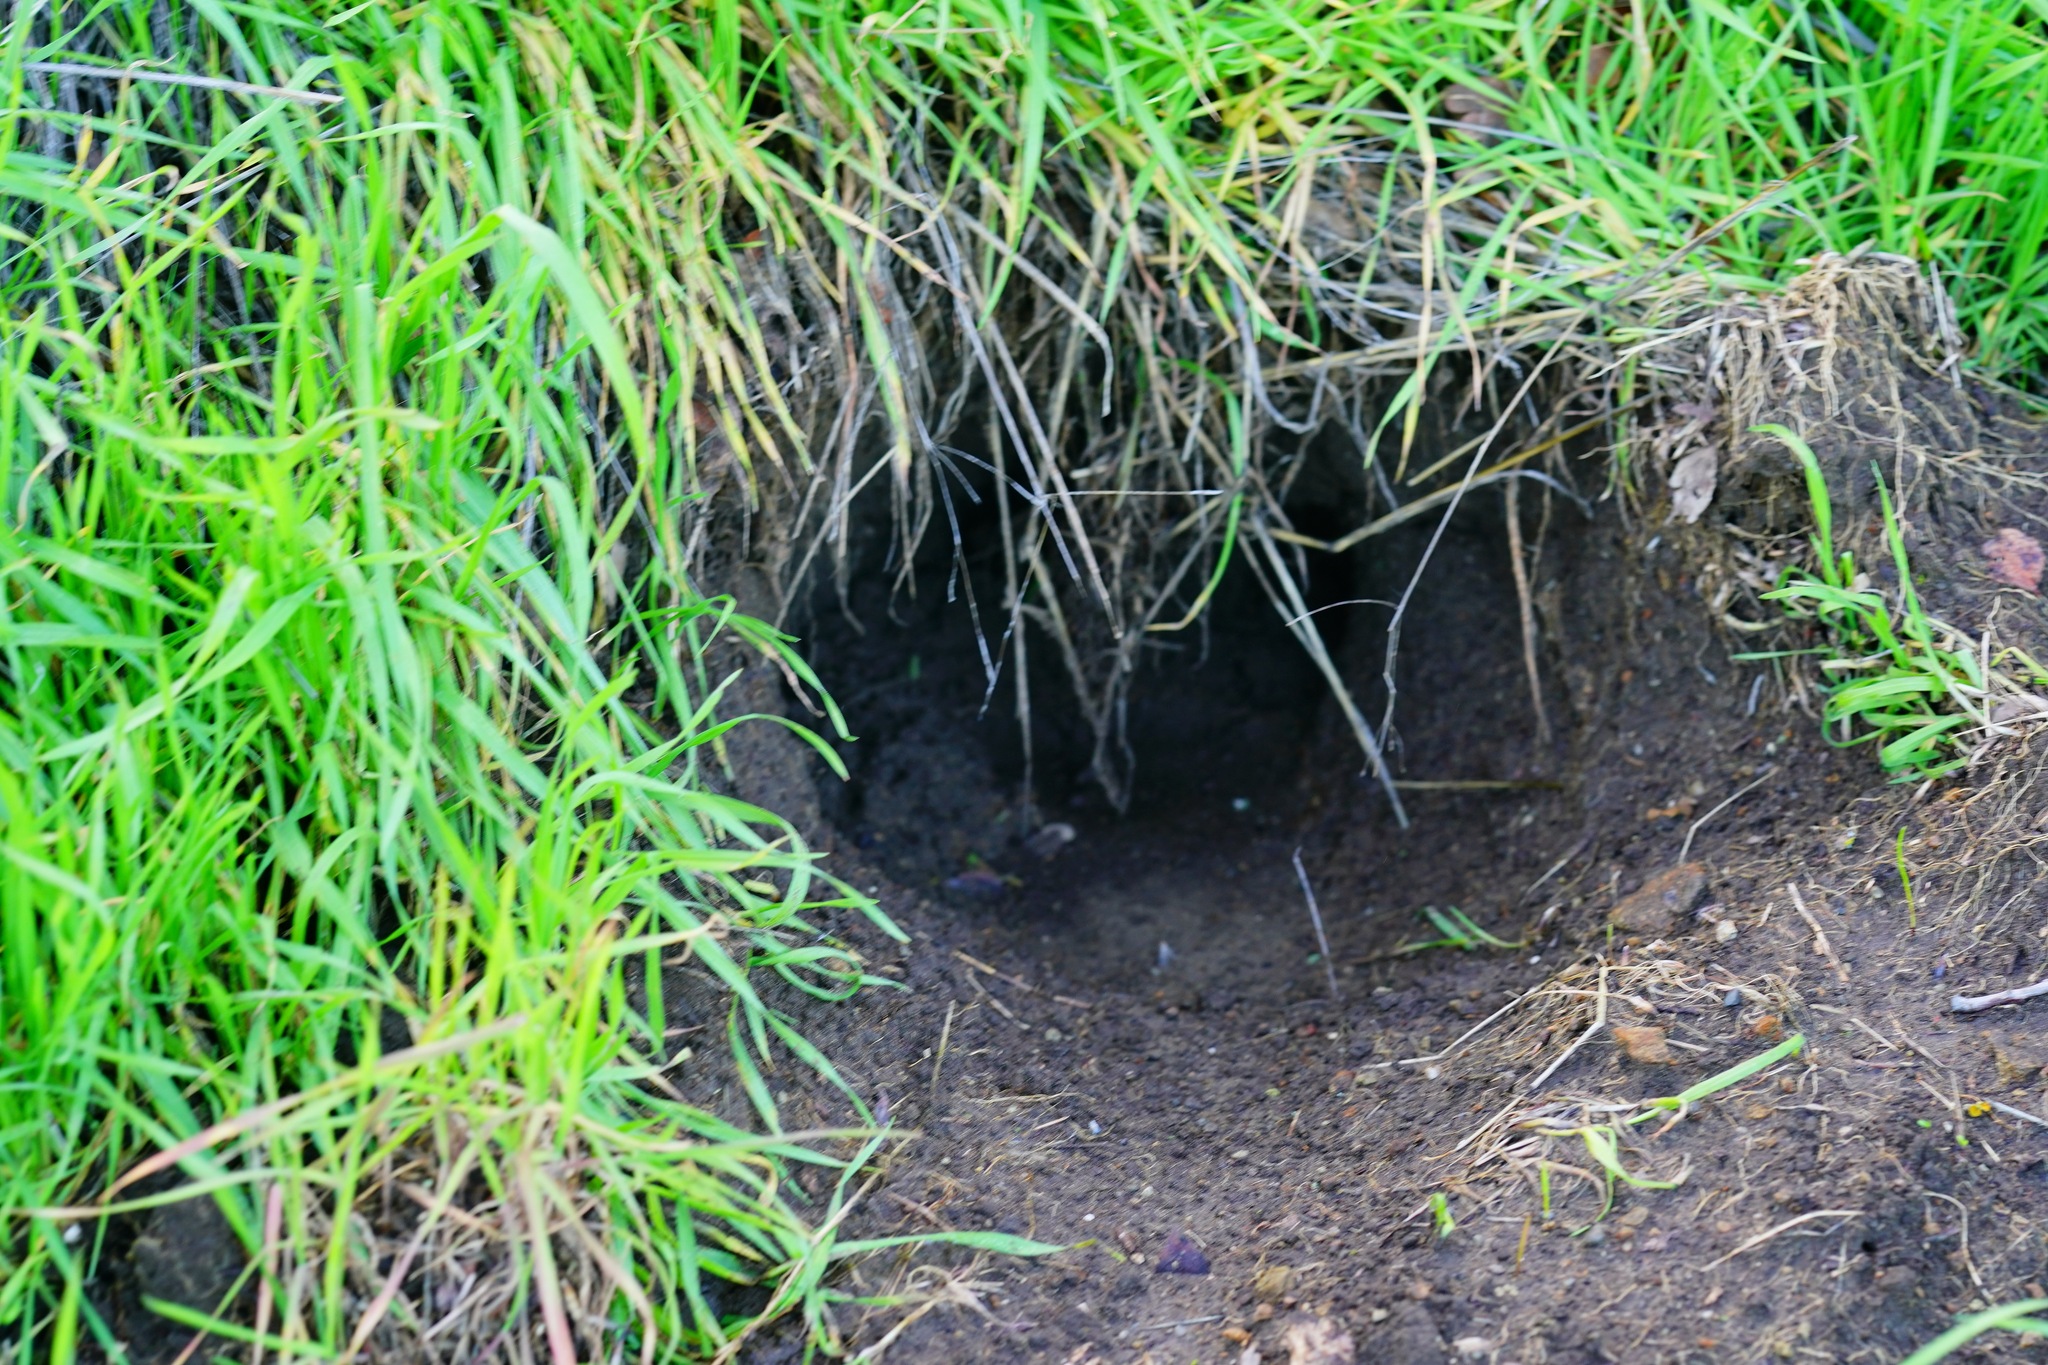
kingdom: Animalia
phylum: Chordata
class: Mammalia
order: Carnivora
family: Mustelidae
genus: Taxidea
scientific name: Taxidea taxus
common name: American badger
